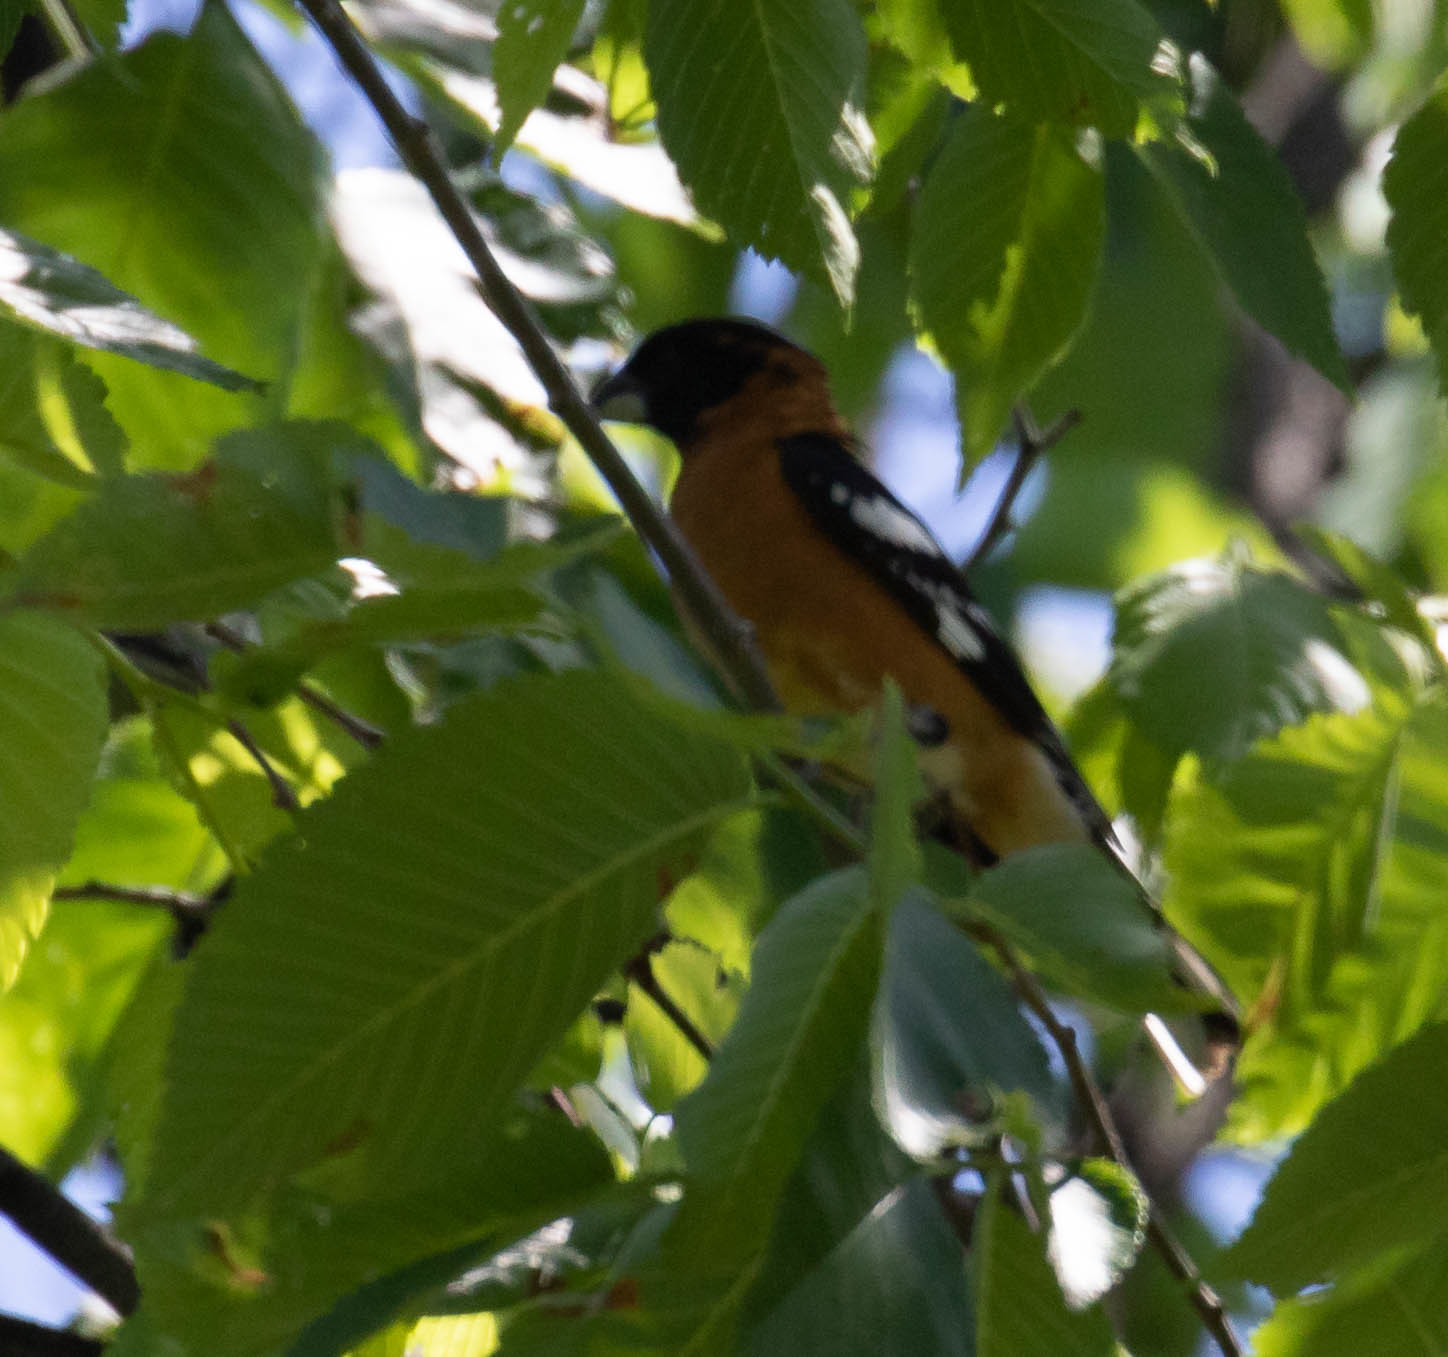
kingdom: Animalia
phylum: Chordata
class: Aves
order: Passeriformes
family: Cardinalidae
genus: Pheucticus
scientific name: Pheucticus melanocephalus
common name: Black-headed grosbeak
